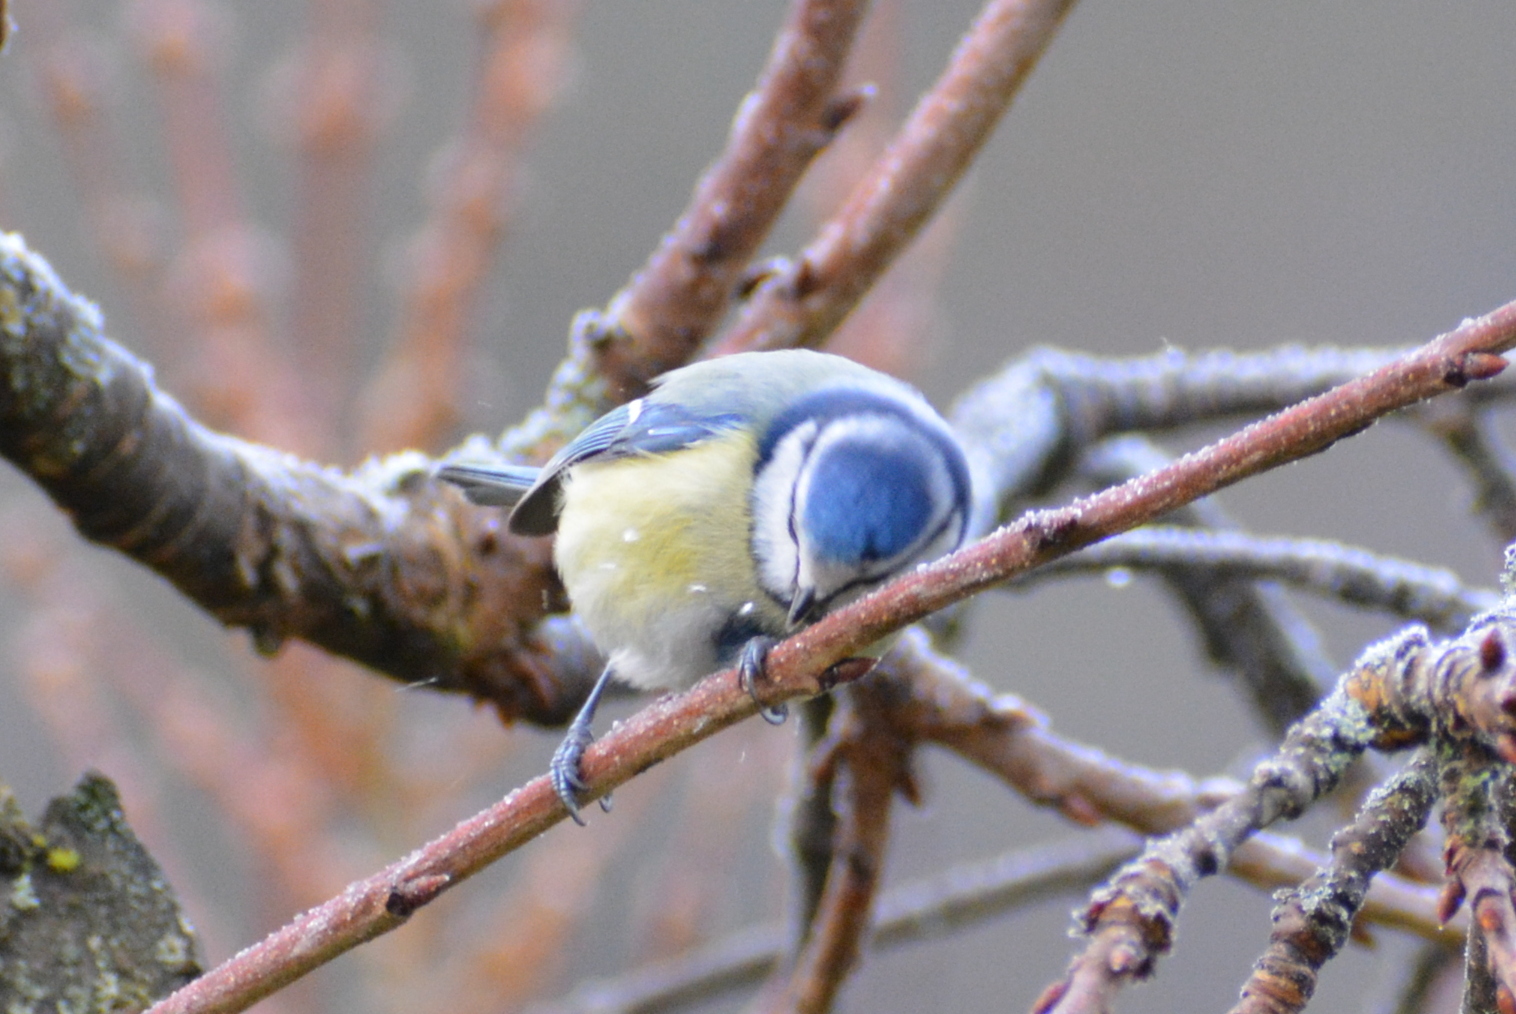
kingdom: Animalia
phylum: Chordata
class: Aves
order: Passeriformes
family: Paridae
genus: Cyanistes
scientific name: Cyanistes caeruleus
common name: Eurasian blue tit
